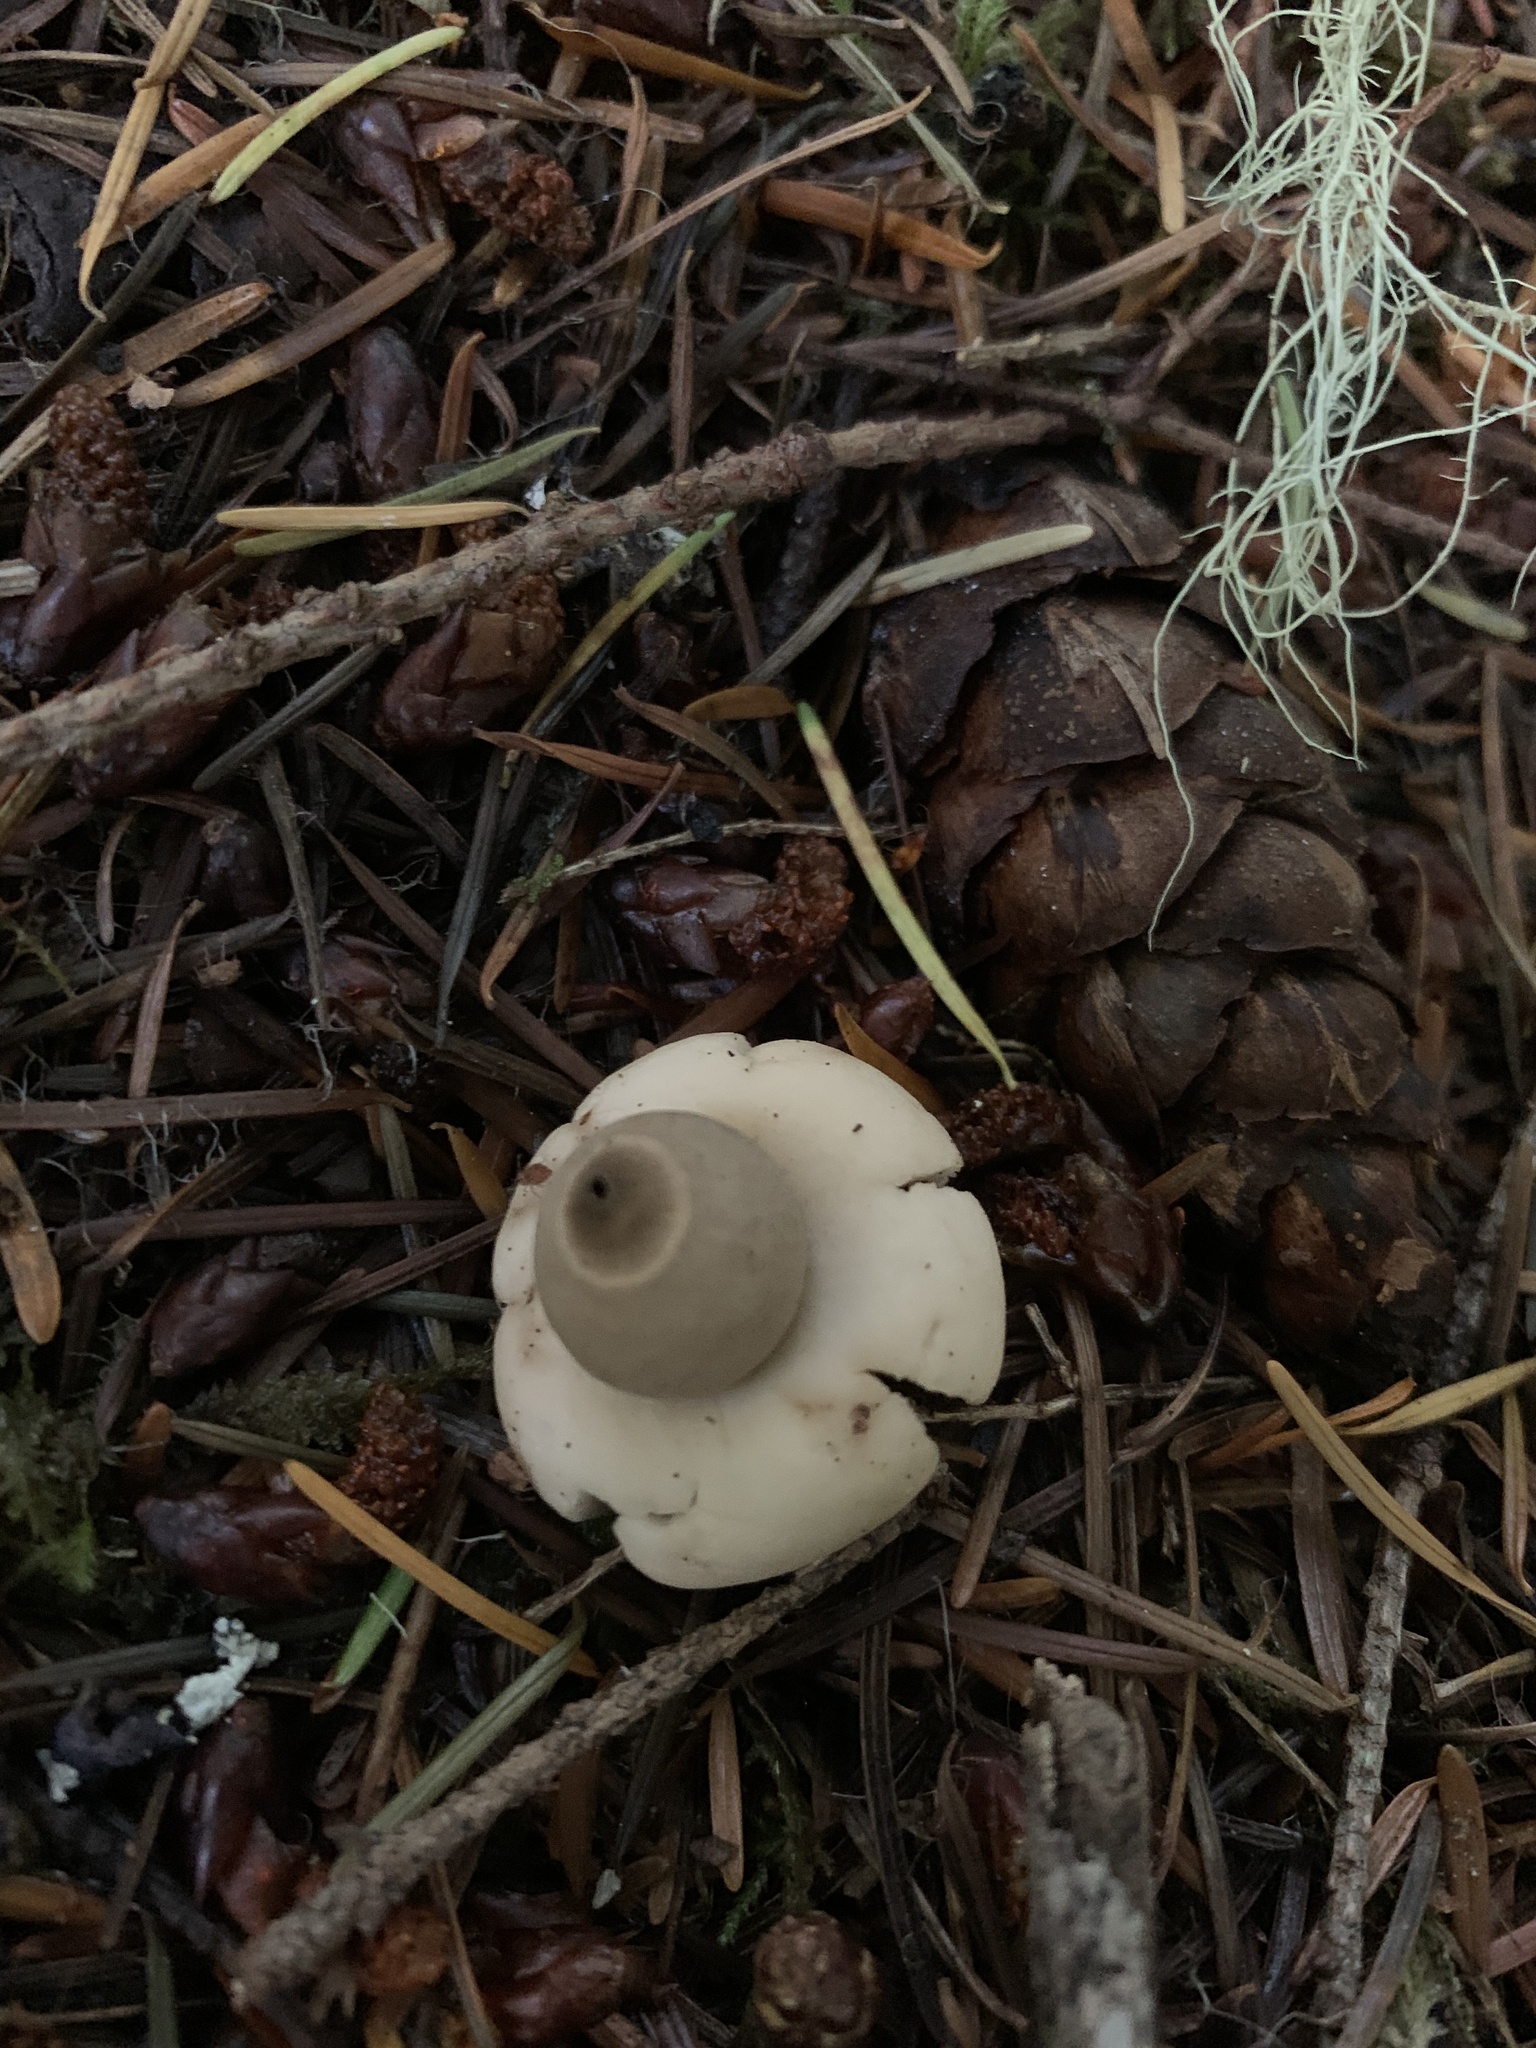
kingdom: Fungi
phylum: Basidiomycota
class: Agaricomycetes
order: Geastrales
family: Geastraceae
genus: Geastrum
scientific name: Geastrum saccatum
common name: Rounded earthstar
